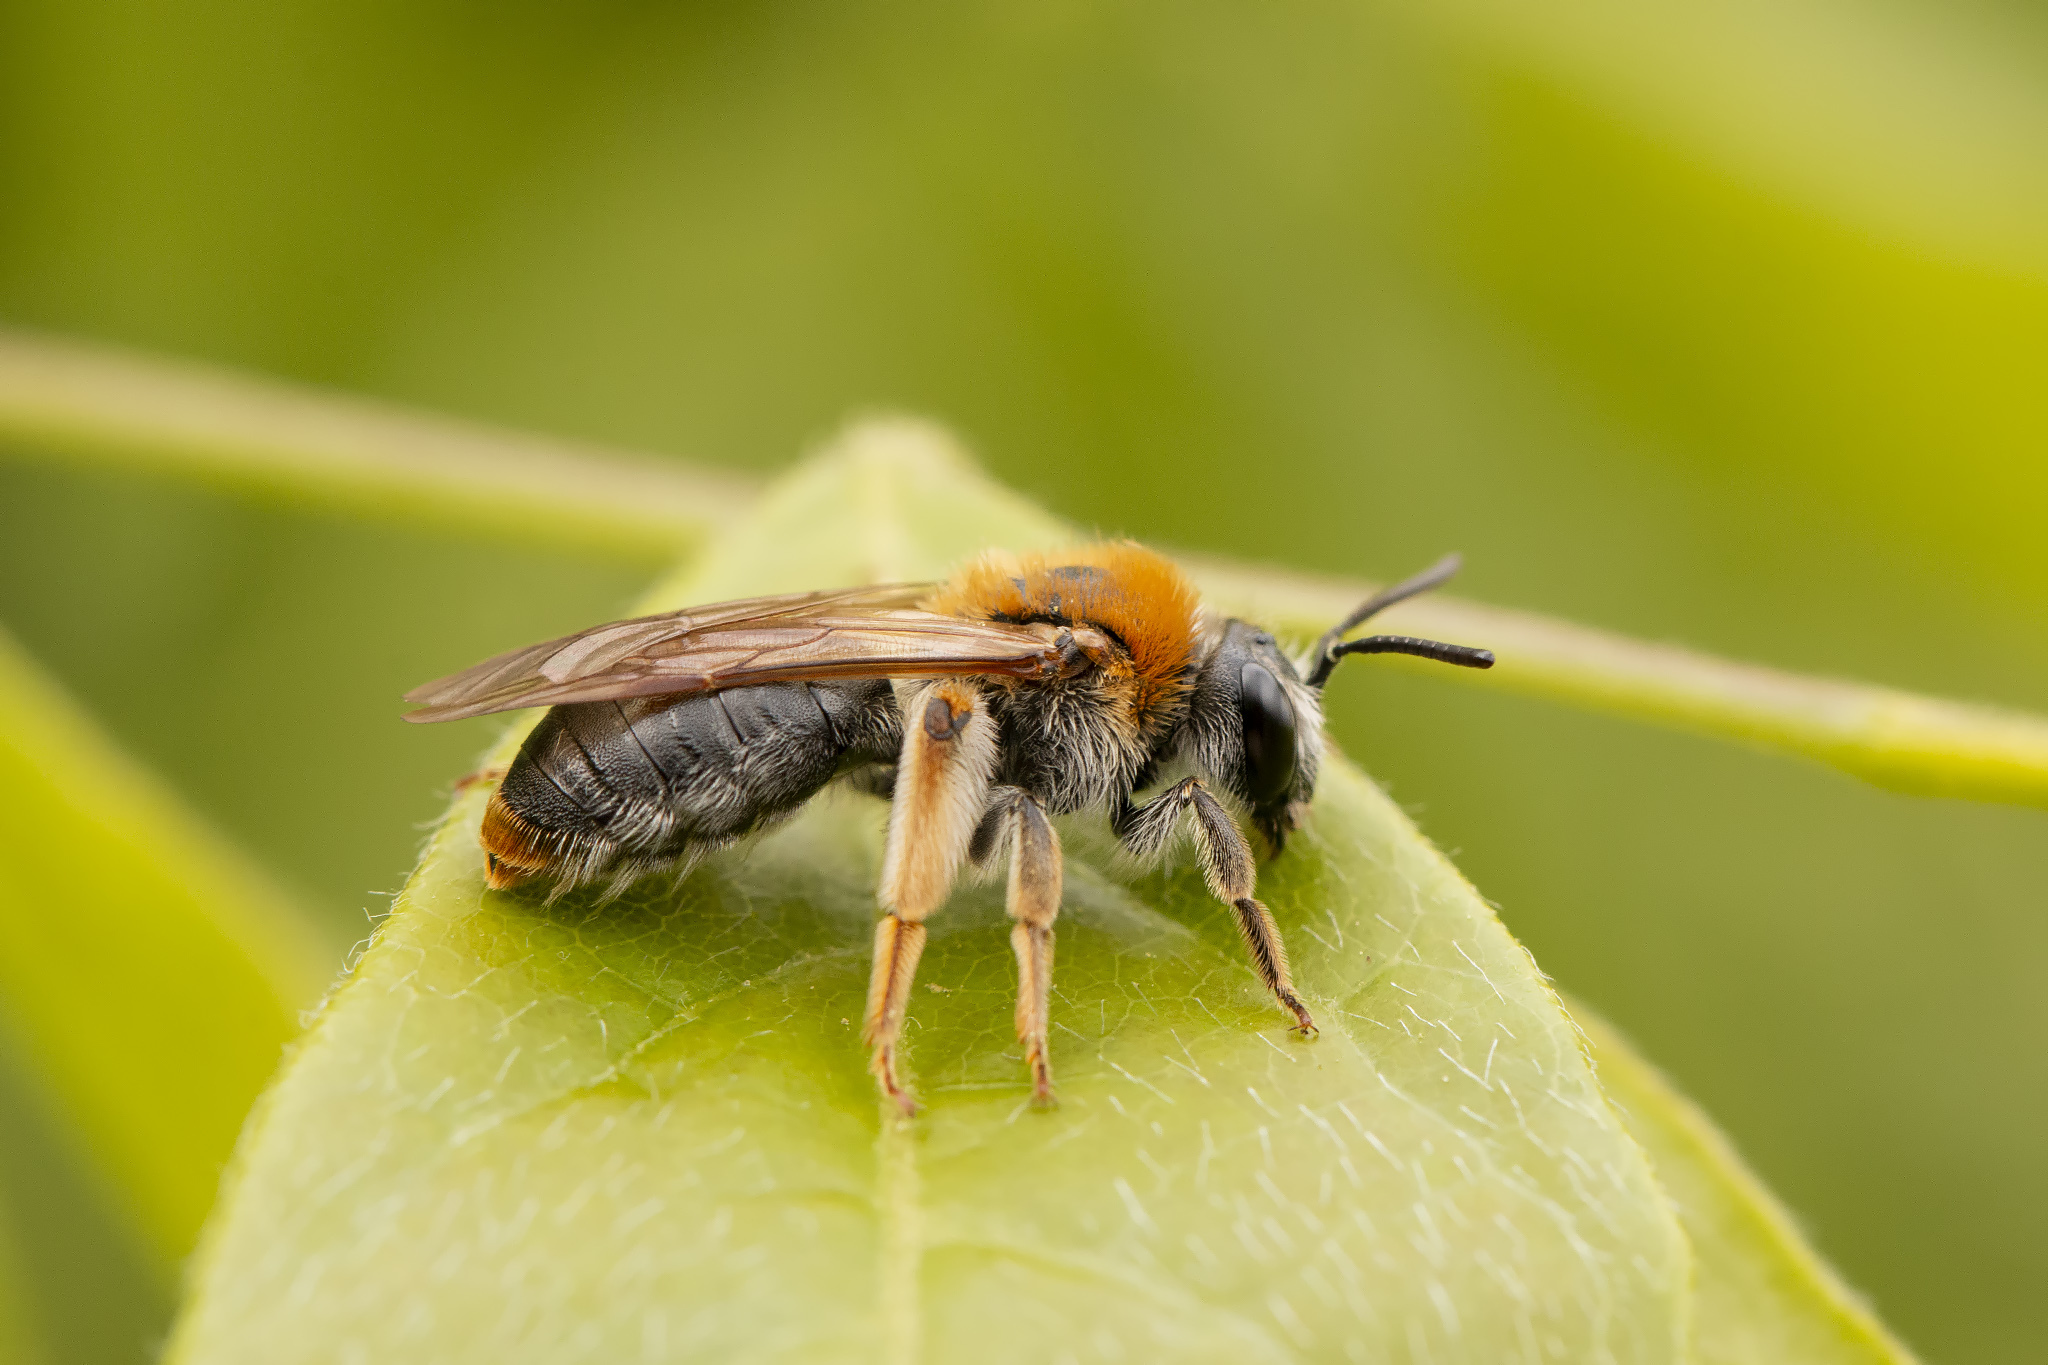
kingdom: Animalia
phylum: Arthropoda
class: Insecta
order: Hymenoptera
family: Andrenidae
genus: Andrena
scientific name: Andrena haemorrhoa
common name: Early mining bee
